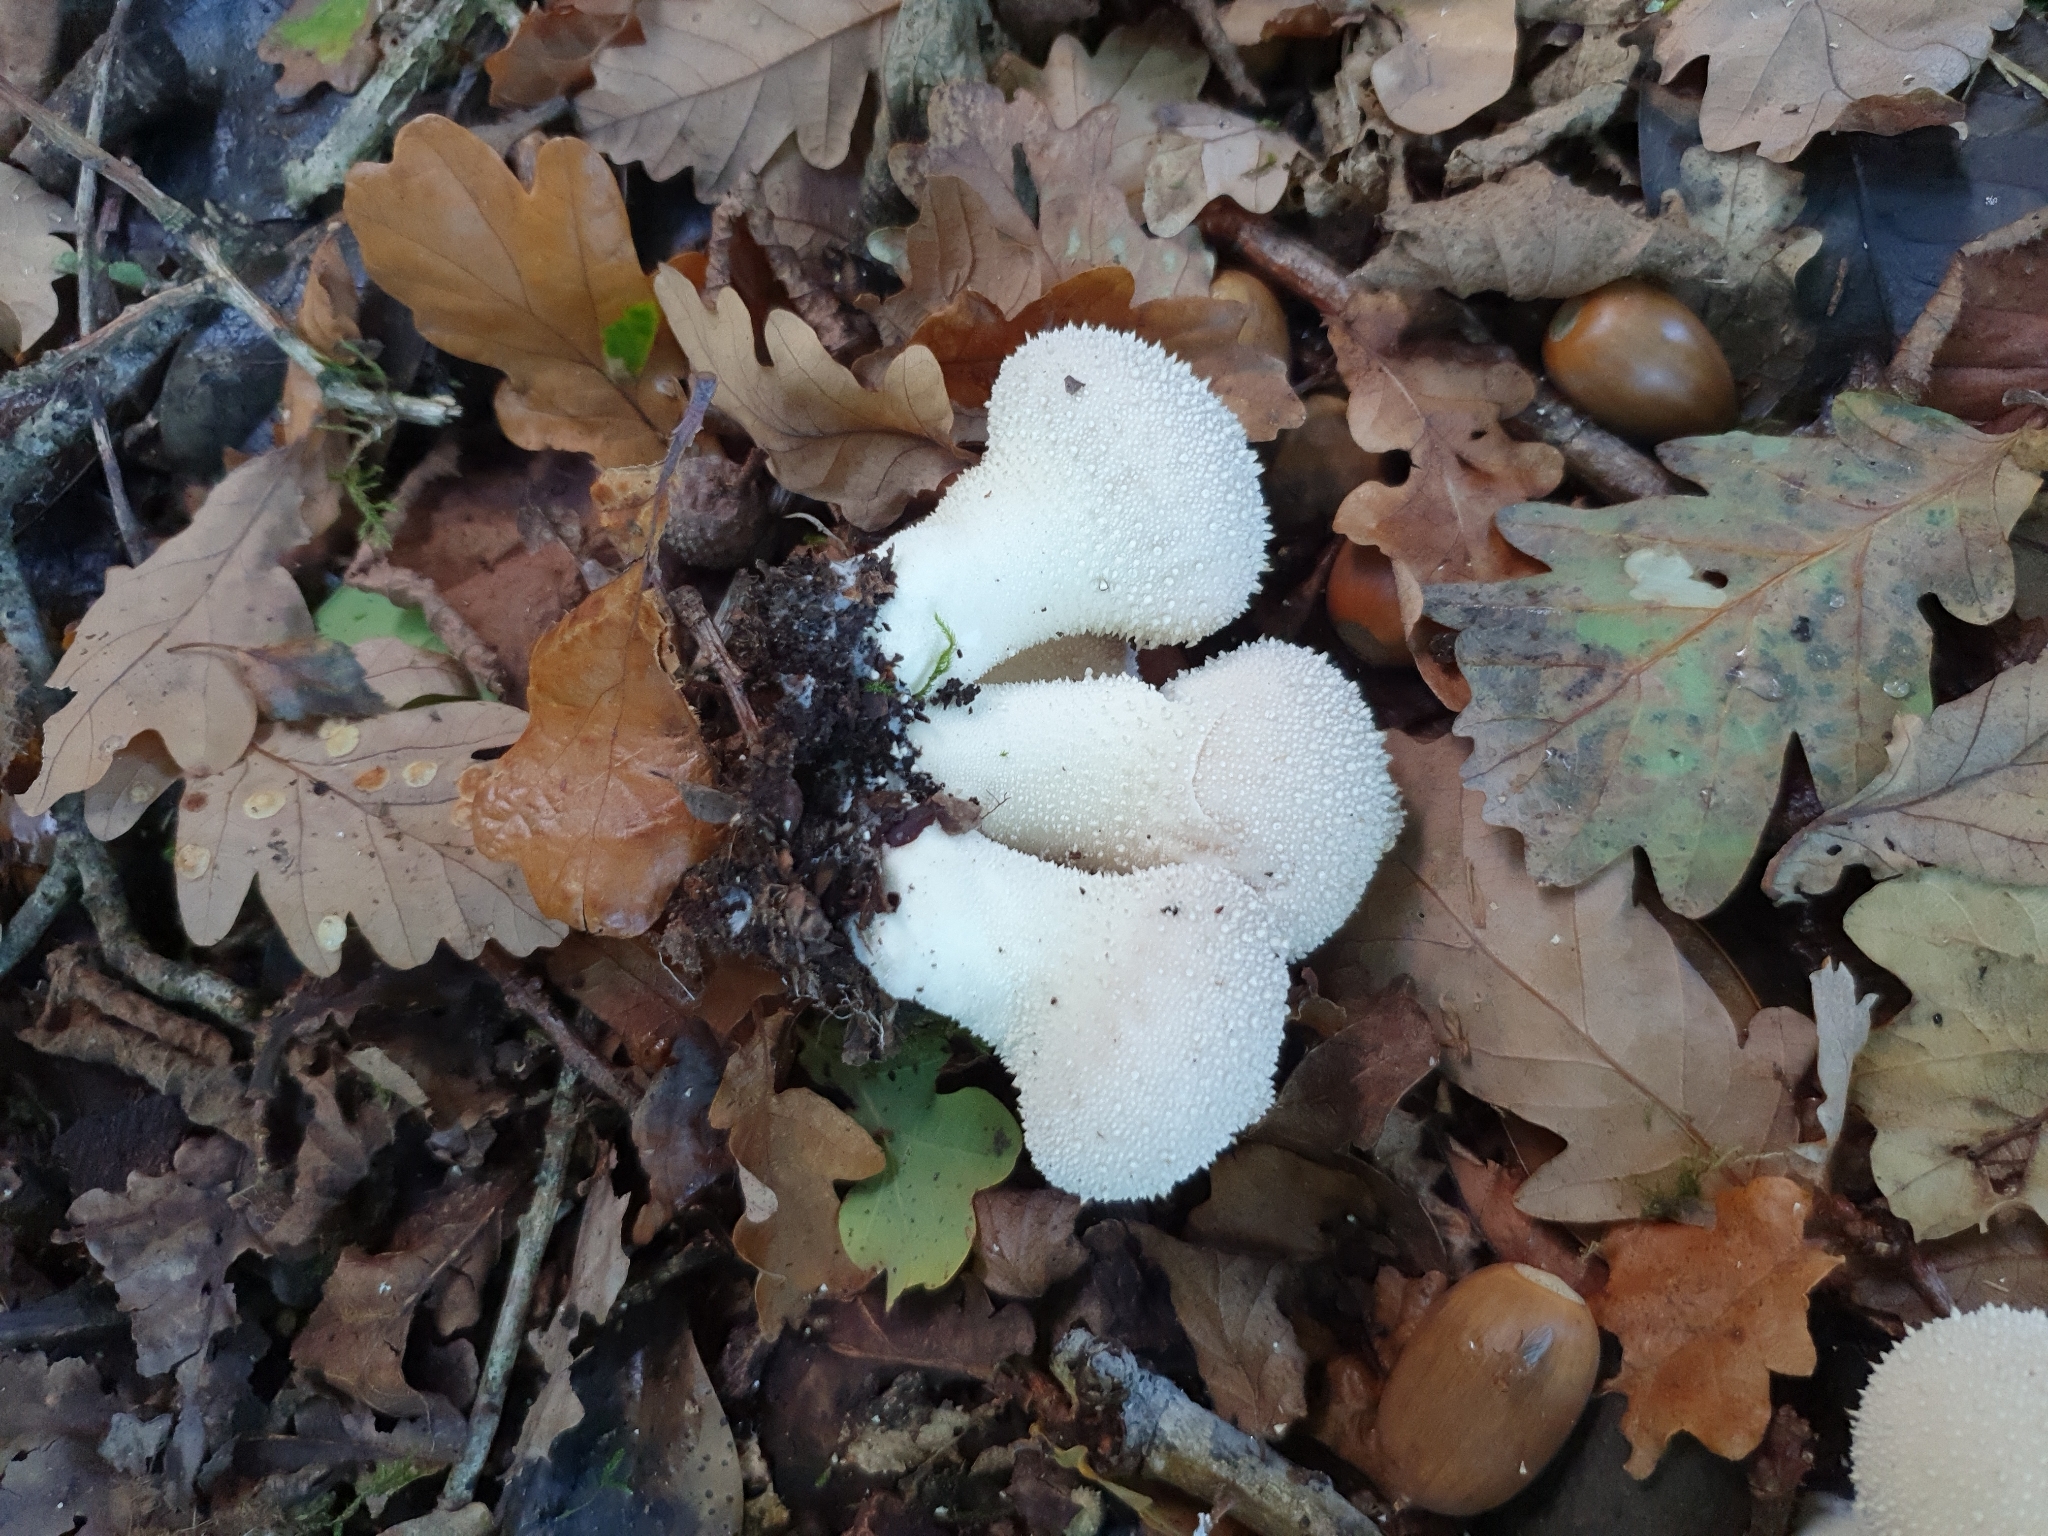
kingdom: Fungi
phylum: Basidiomycota
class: Agaricomycetes
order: Agaricales
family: Lycoperdaceae
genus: Lycoperdon
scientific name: Lycoperdon perlatum
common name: Common puffball
